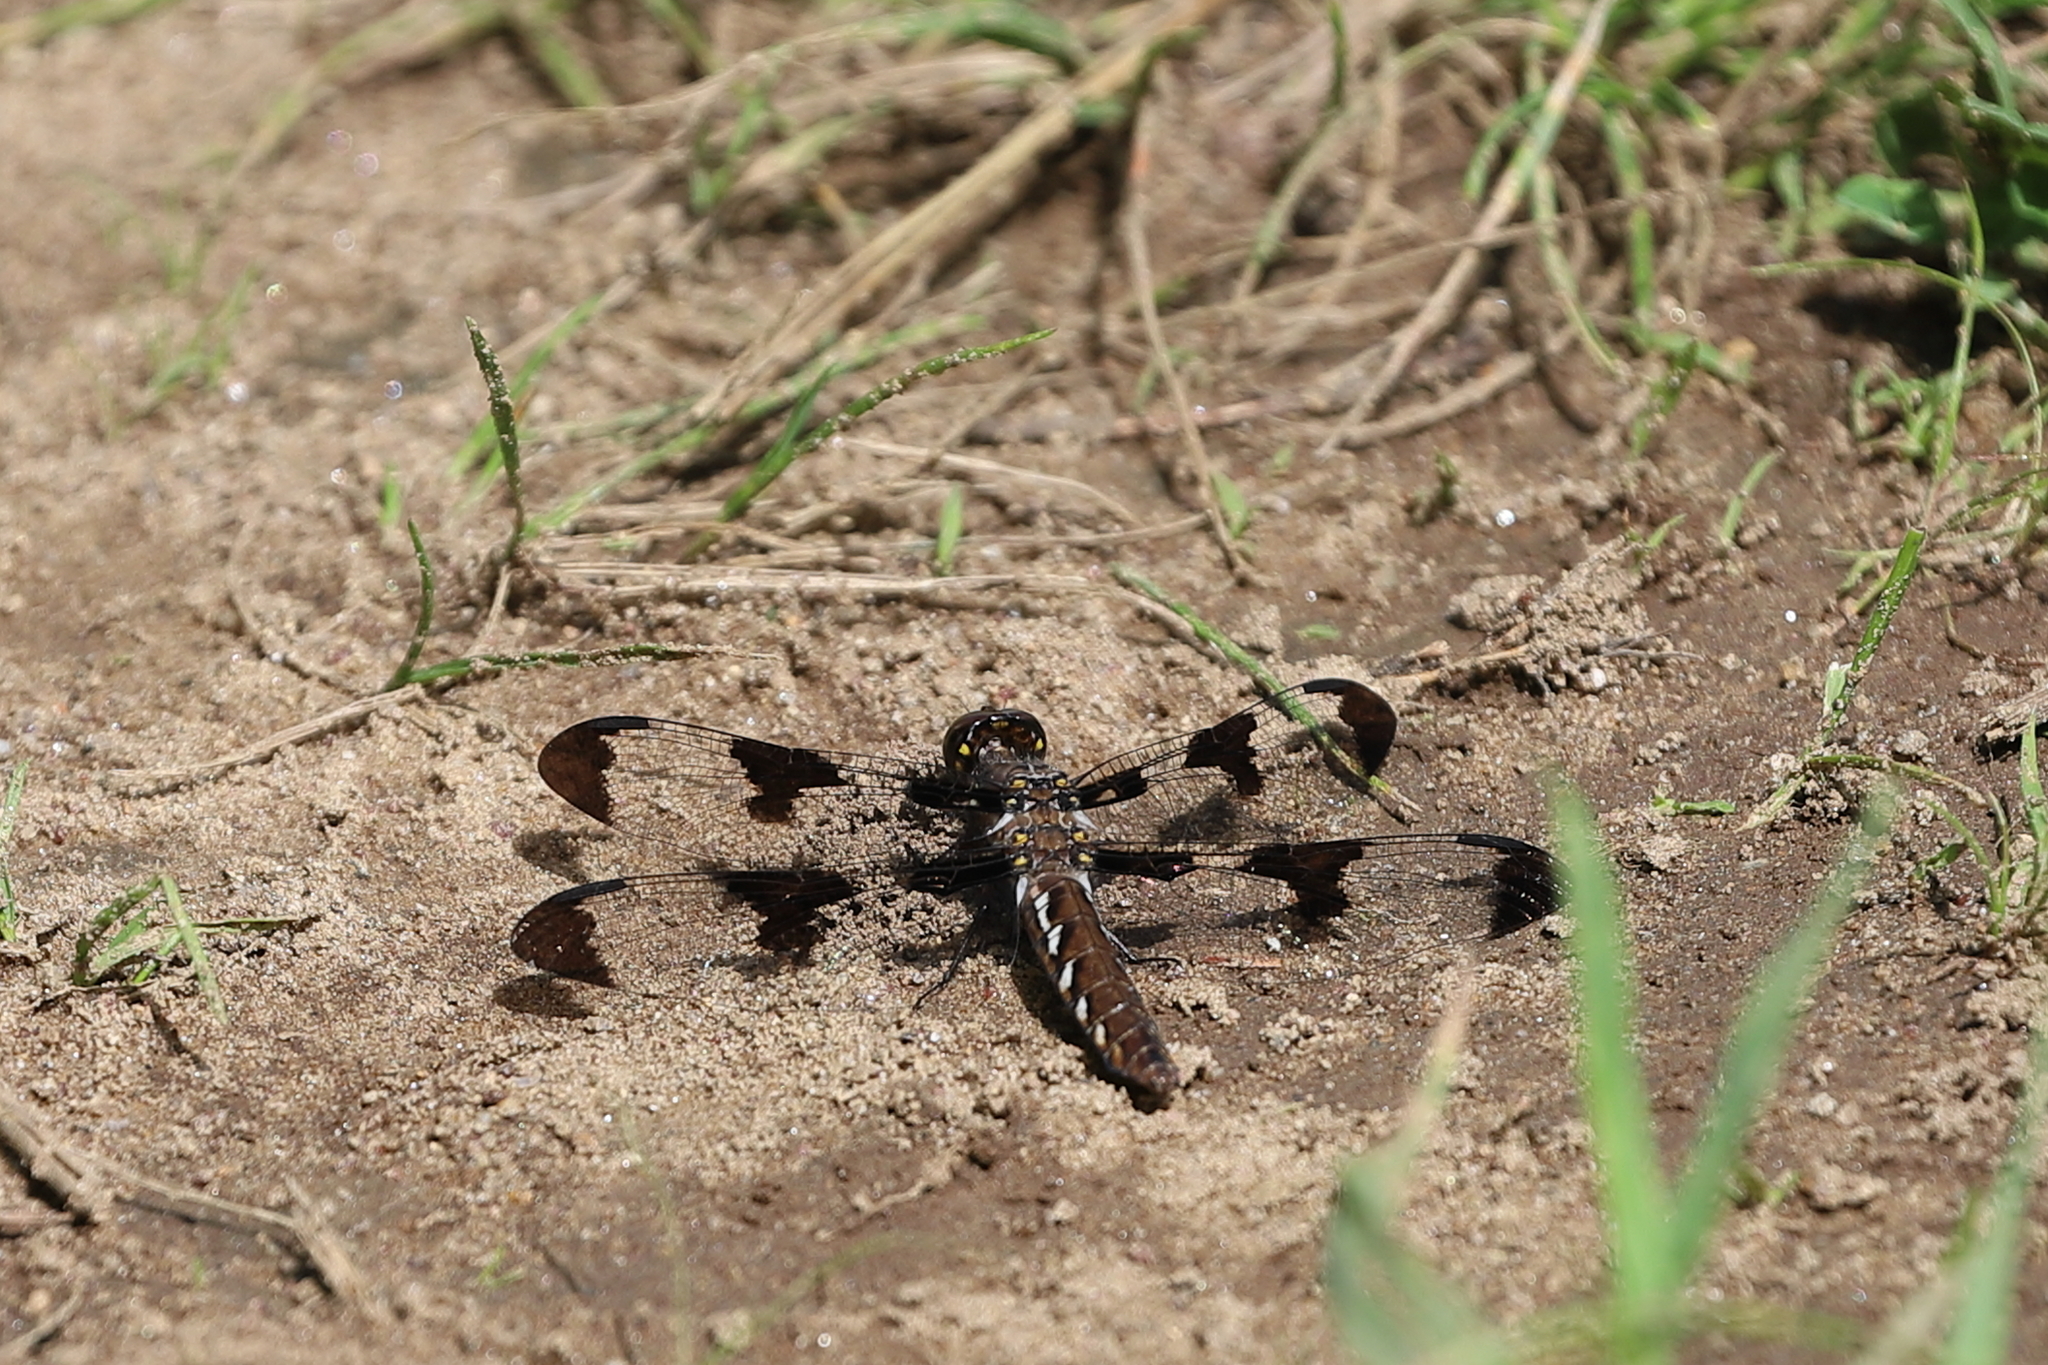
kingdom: Animalia
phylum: Arthropoda
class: Insecta
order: Odonata
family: Libellulidae
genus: Plathemis
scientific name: Plathemis lydia
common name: Common whitetail
